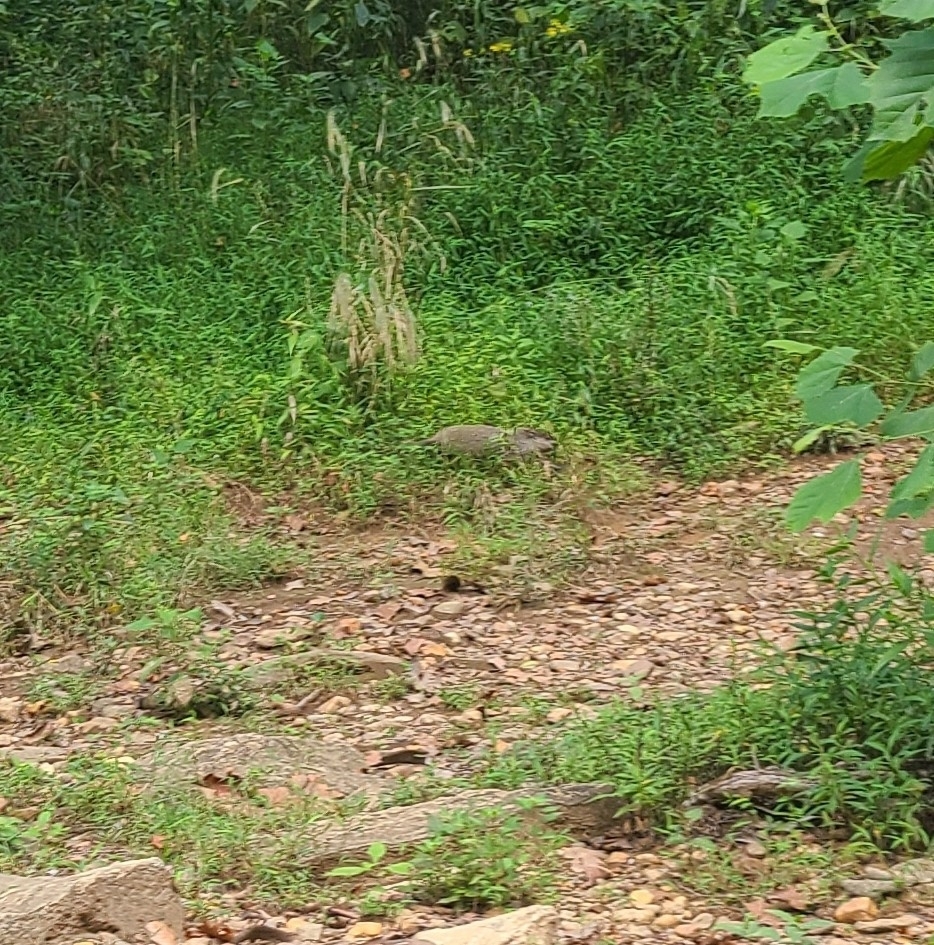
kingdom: Animalia
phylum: Chordata
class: Mammalia
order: Rodentia
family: Sciuridae
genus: Marmota
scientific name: Marmota monax
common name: Groundhog
